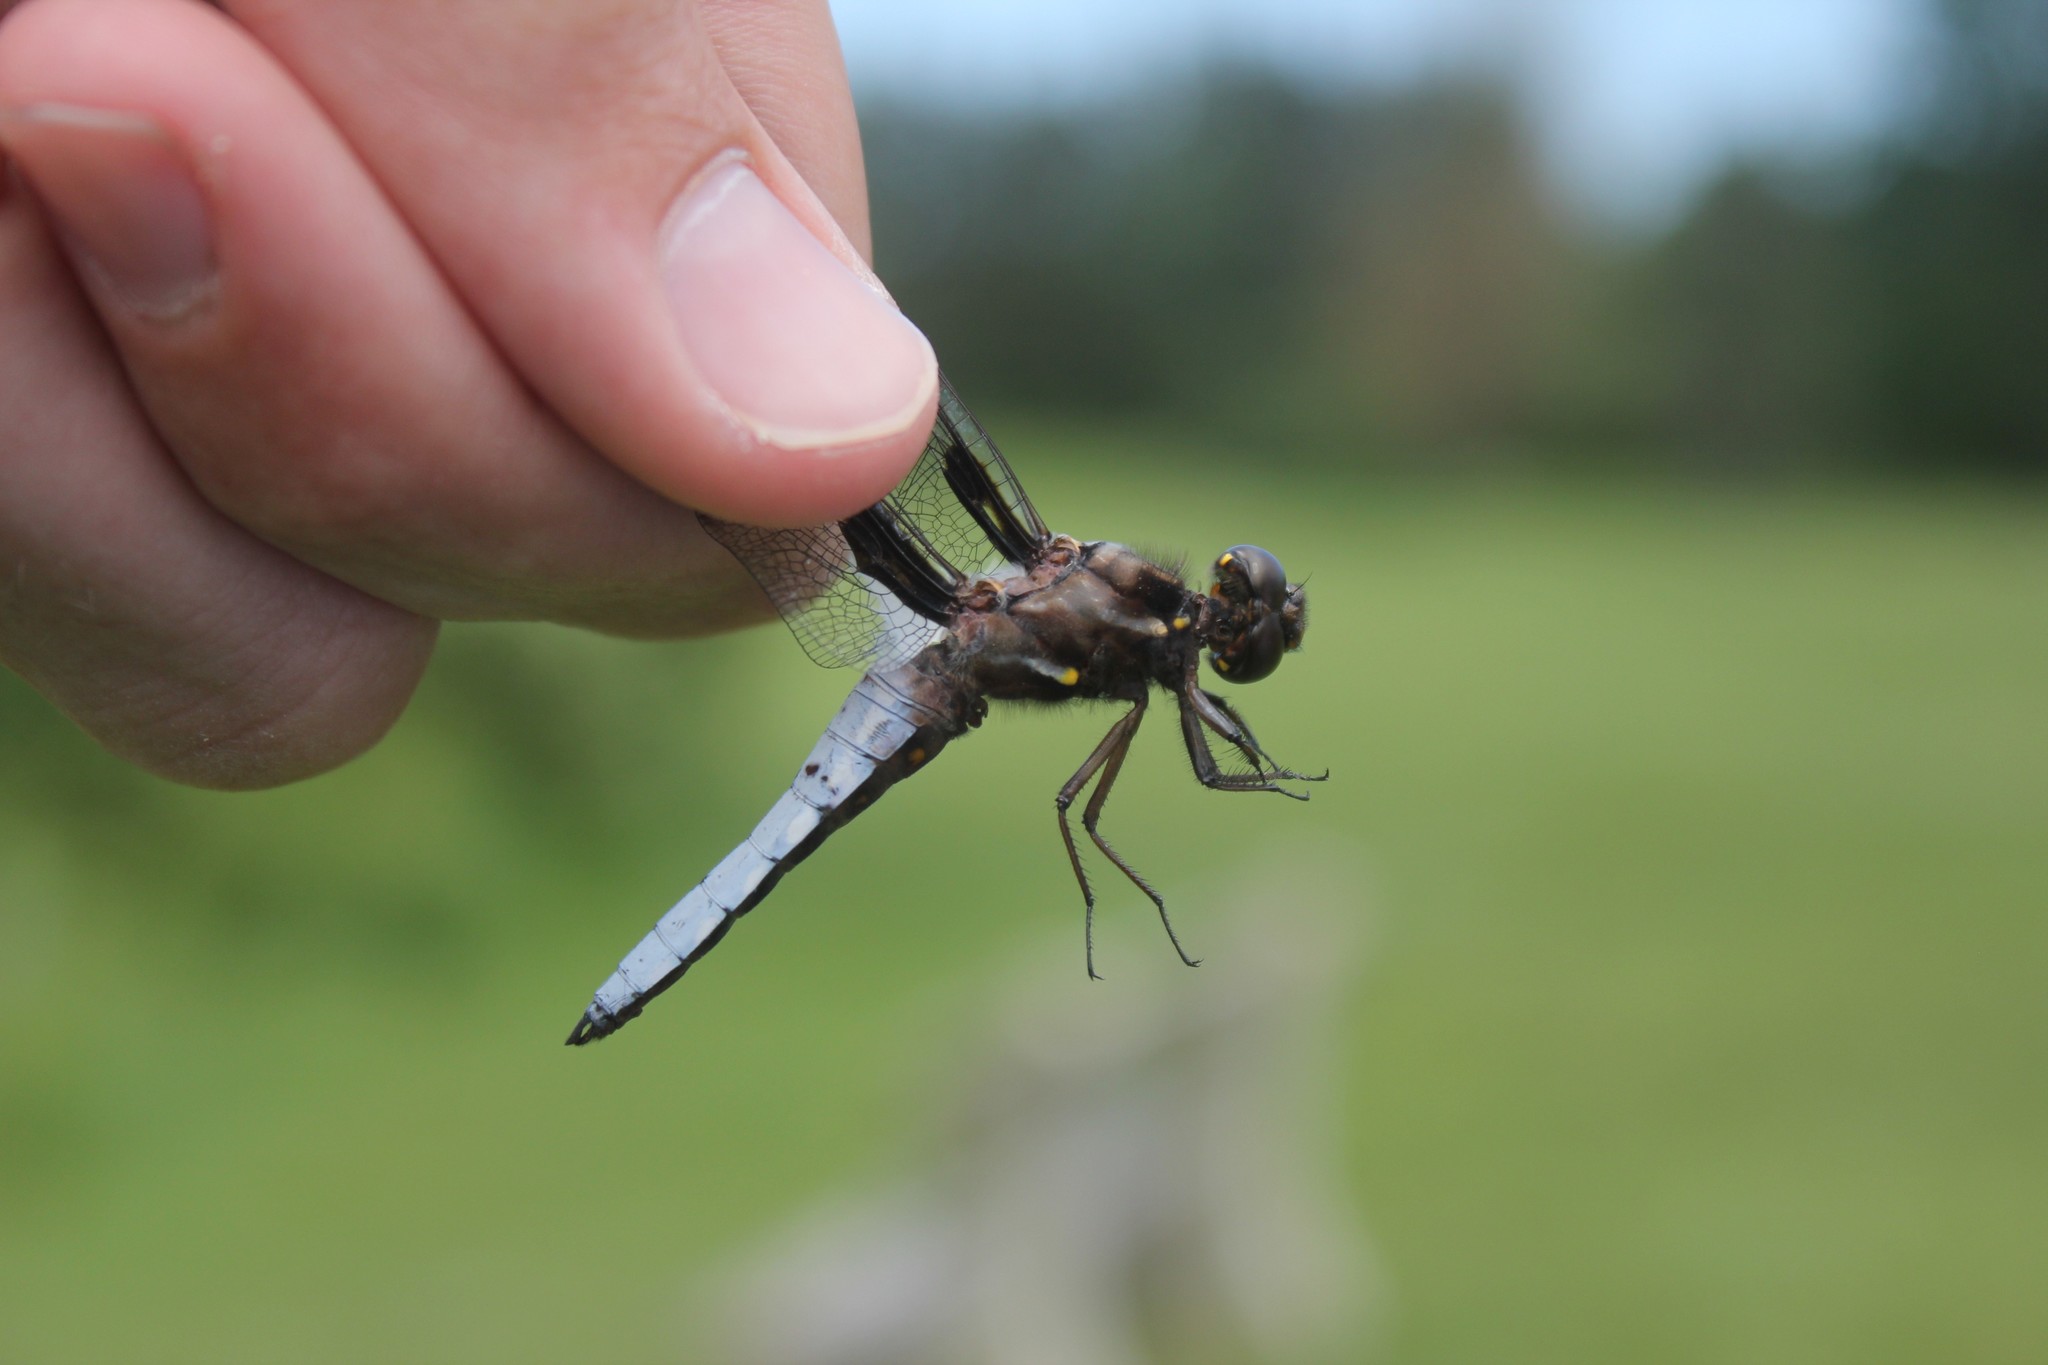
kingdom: Animalia
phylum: Arthropoda
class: Insecta
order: Odonata
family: Libellulidae
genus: Plathemis
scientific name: Plathemis lydia
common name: Common whitetail
